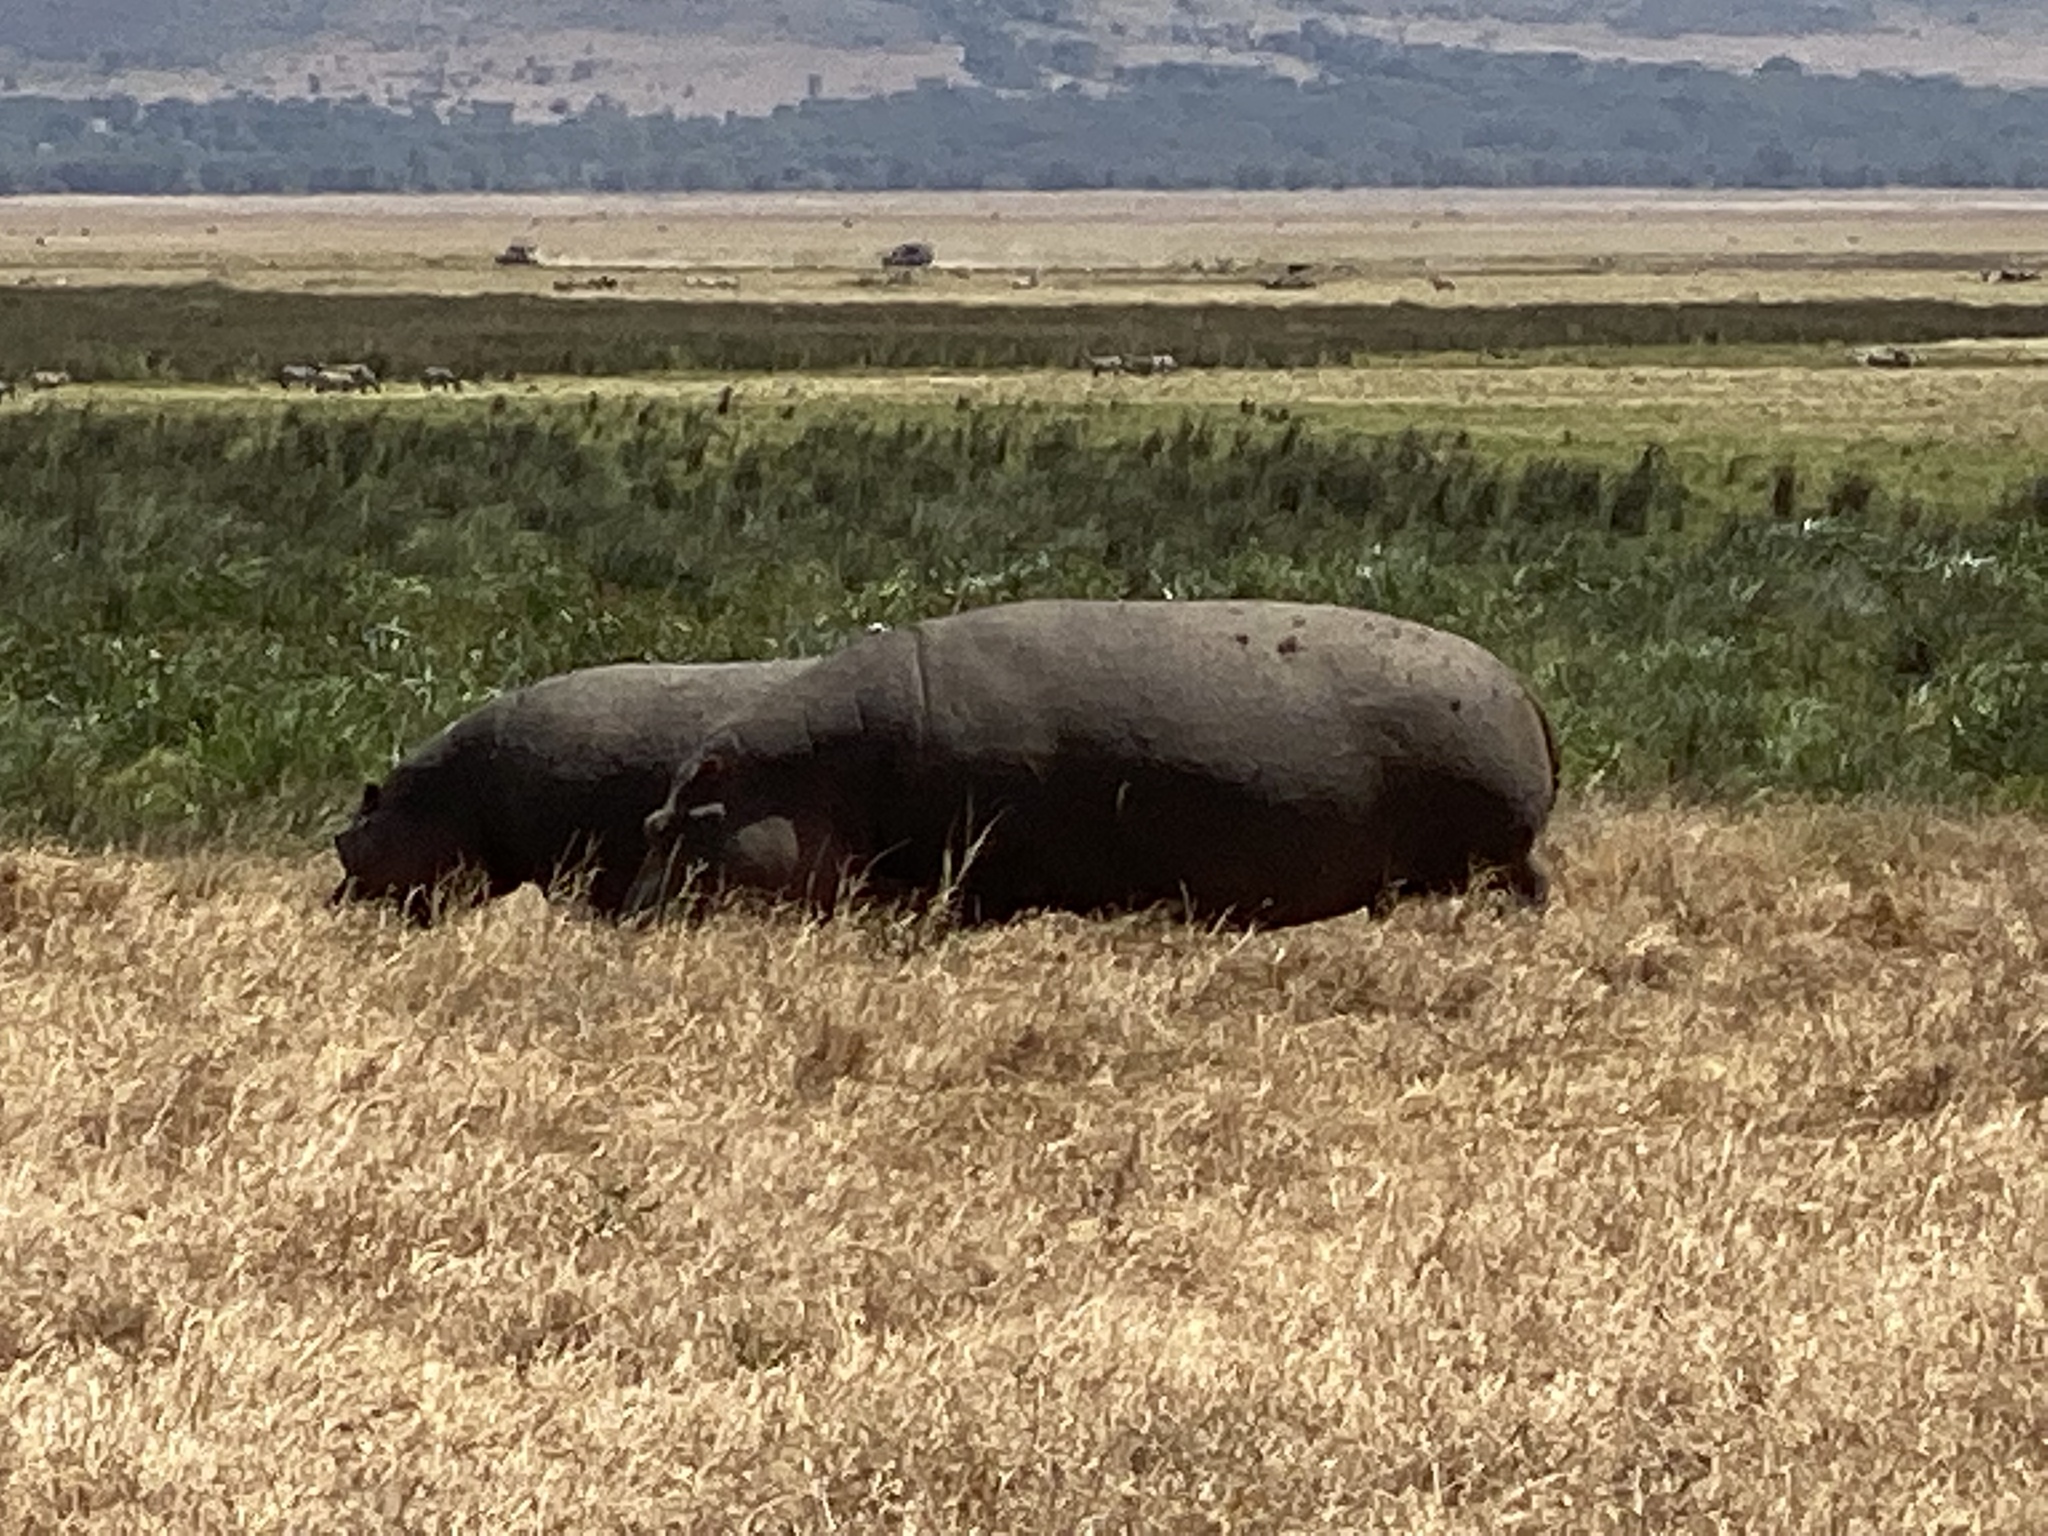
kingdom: Animalia
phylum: Chordata
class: Mammalia
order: Artiodactyla
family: Hippopotamidae
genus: Hippopotamus
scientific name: Hippopotamus amphibius
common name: Common hippopotamus
